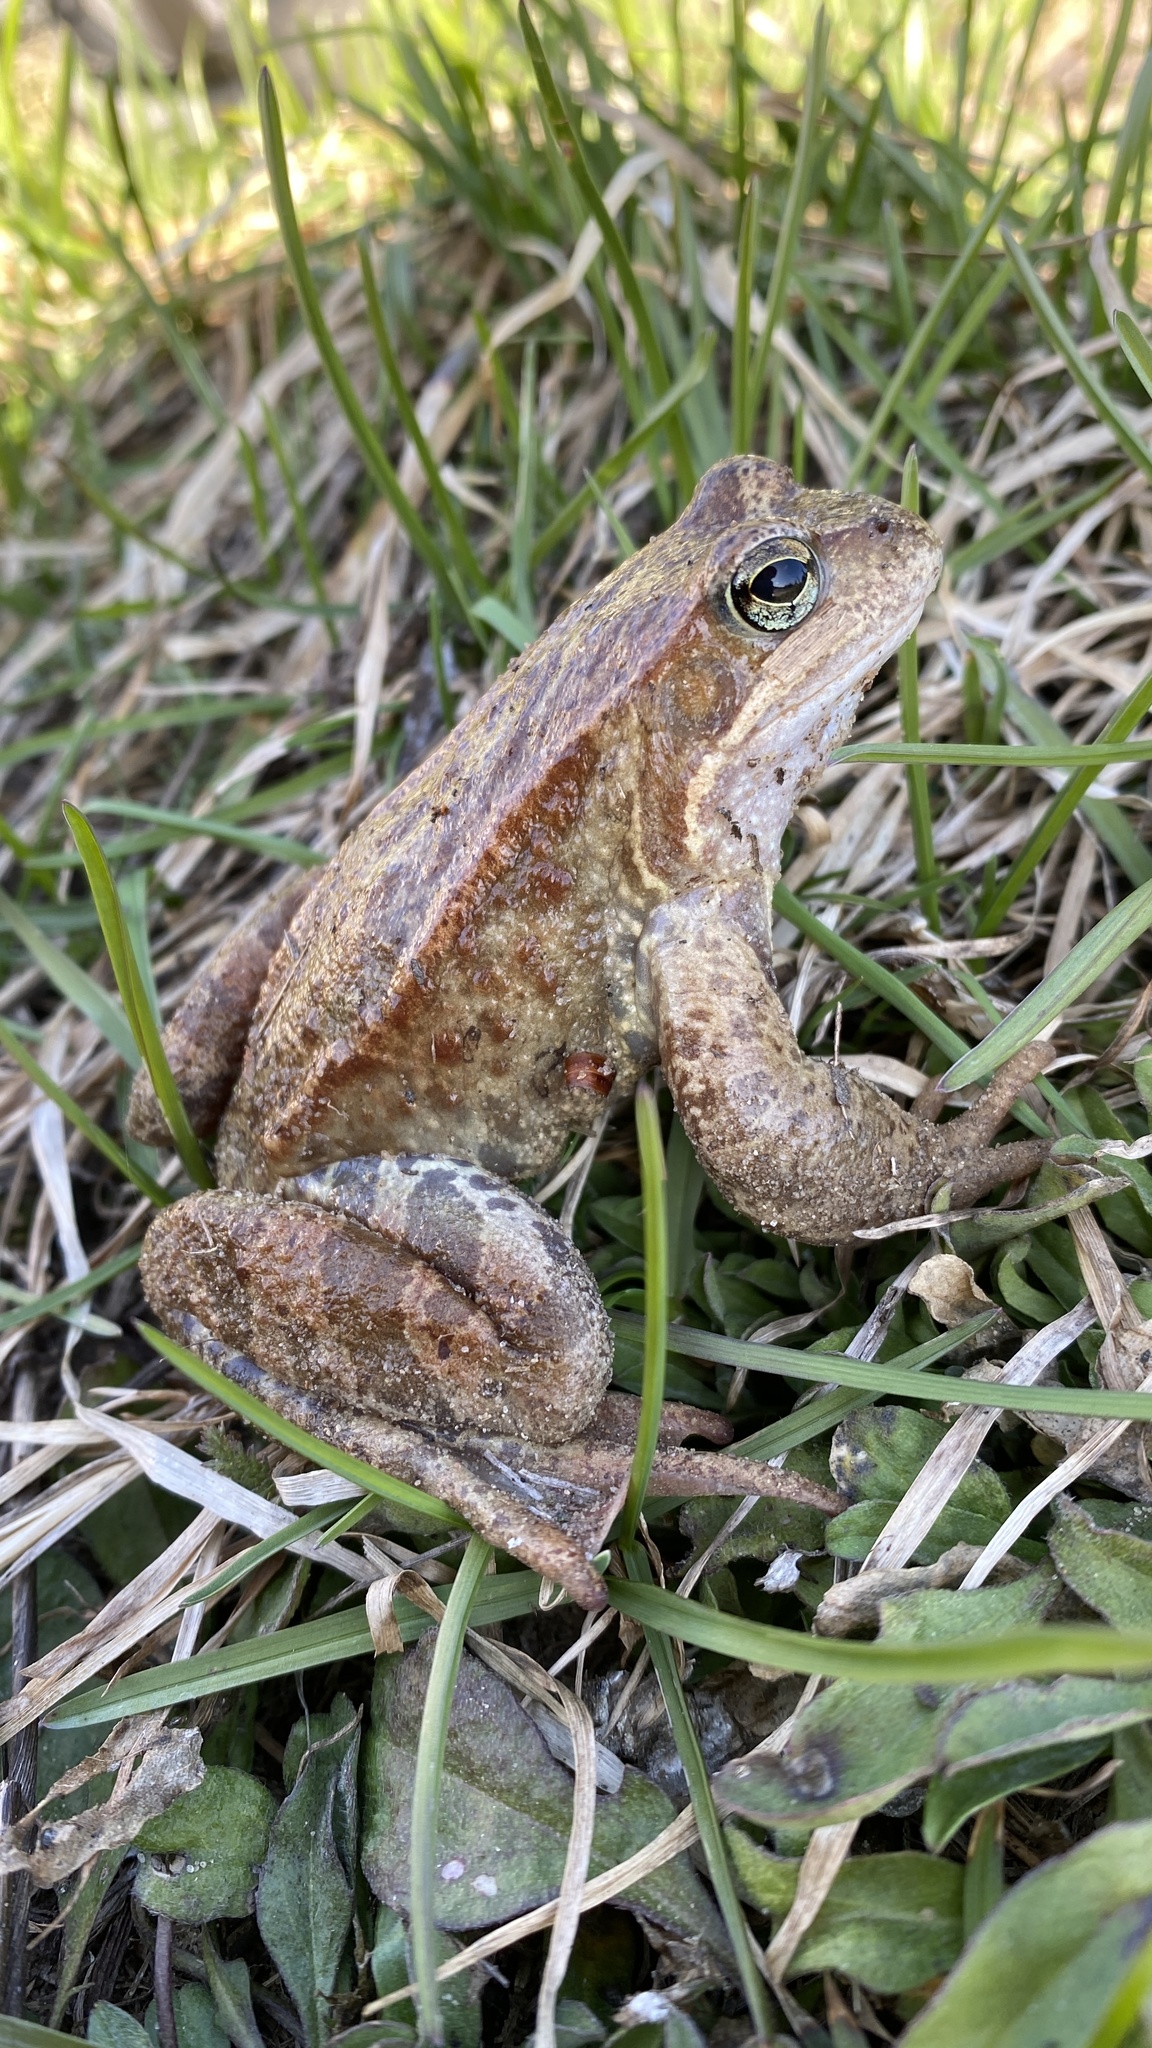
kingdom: Animalia
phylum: Chordata
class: Amphibia
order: Anura
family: Ranidae
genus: Rana
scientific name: Rana temporaria
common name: Common frog
